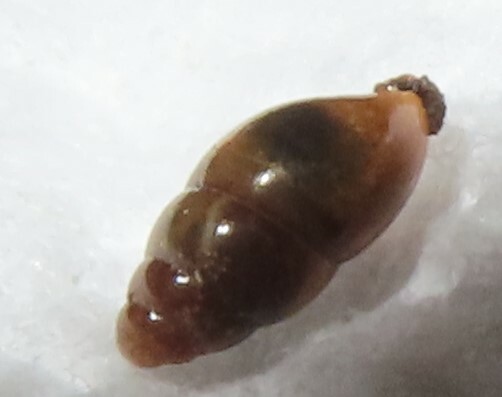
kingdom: Animalia
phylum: Mollusca
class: Gastropoda
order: Stylommatophora
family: Cochlicopidae
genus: Cochlicopa
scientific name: Cochlicopa lubrica
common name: Glossy pillar snail
